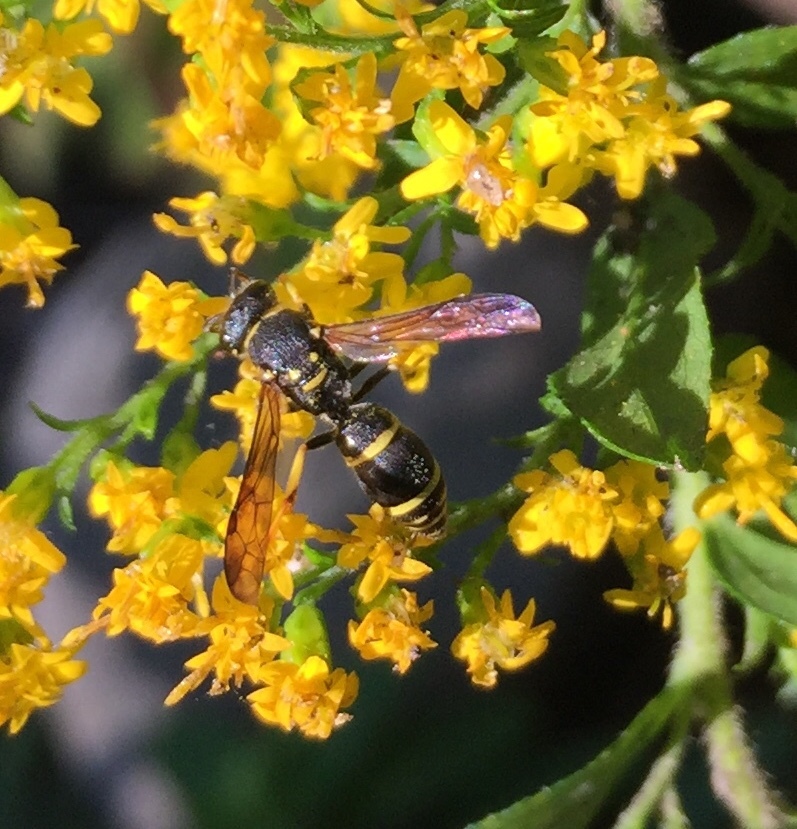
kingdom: Animalia
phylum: Arthropoda
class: Insecta
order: Hymenoptera
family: Vespidae
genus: Ancistrocerus
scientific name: Ancistrocerus adiabatus
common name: Bramble mason wasp
